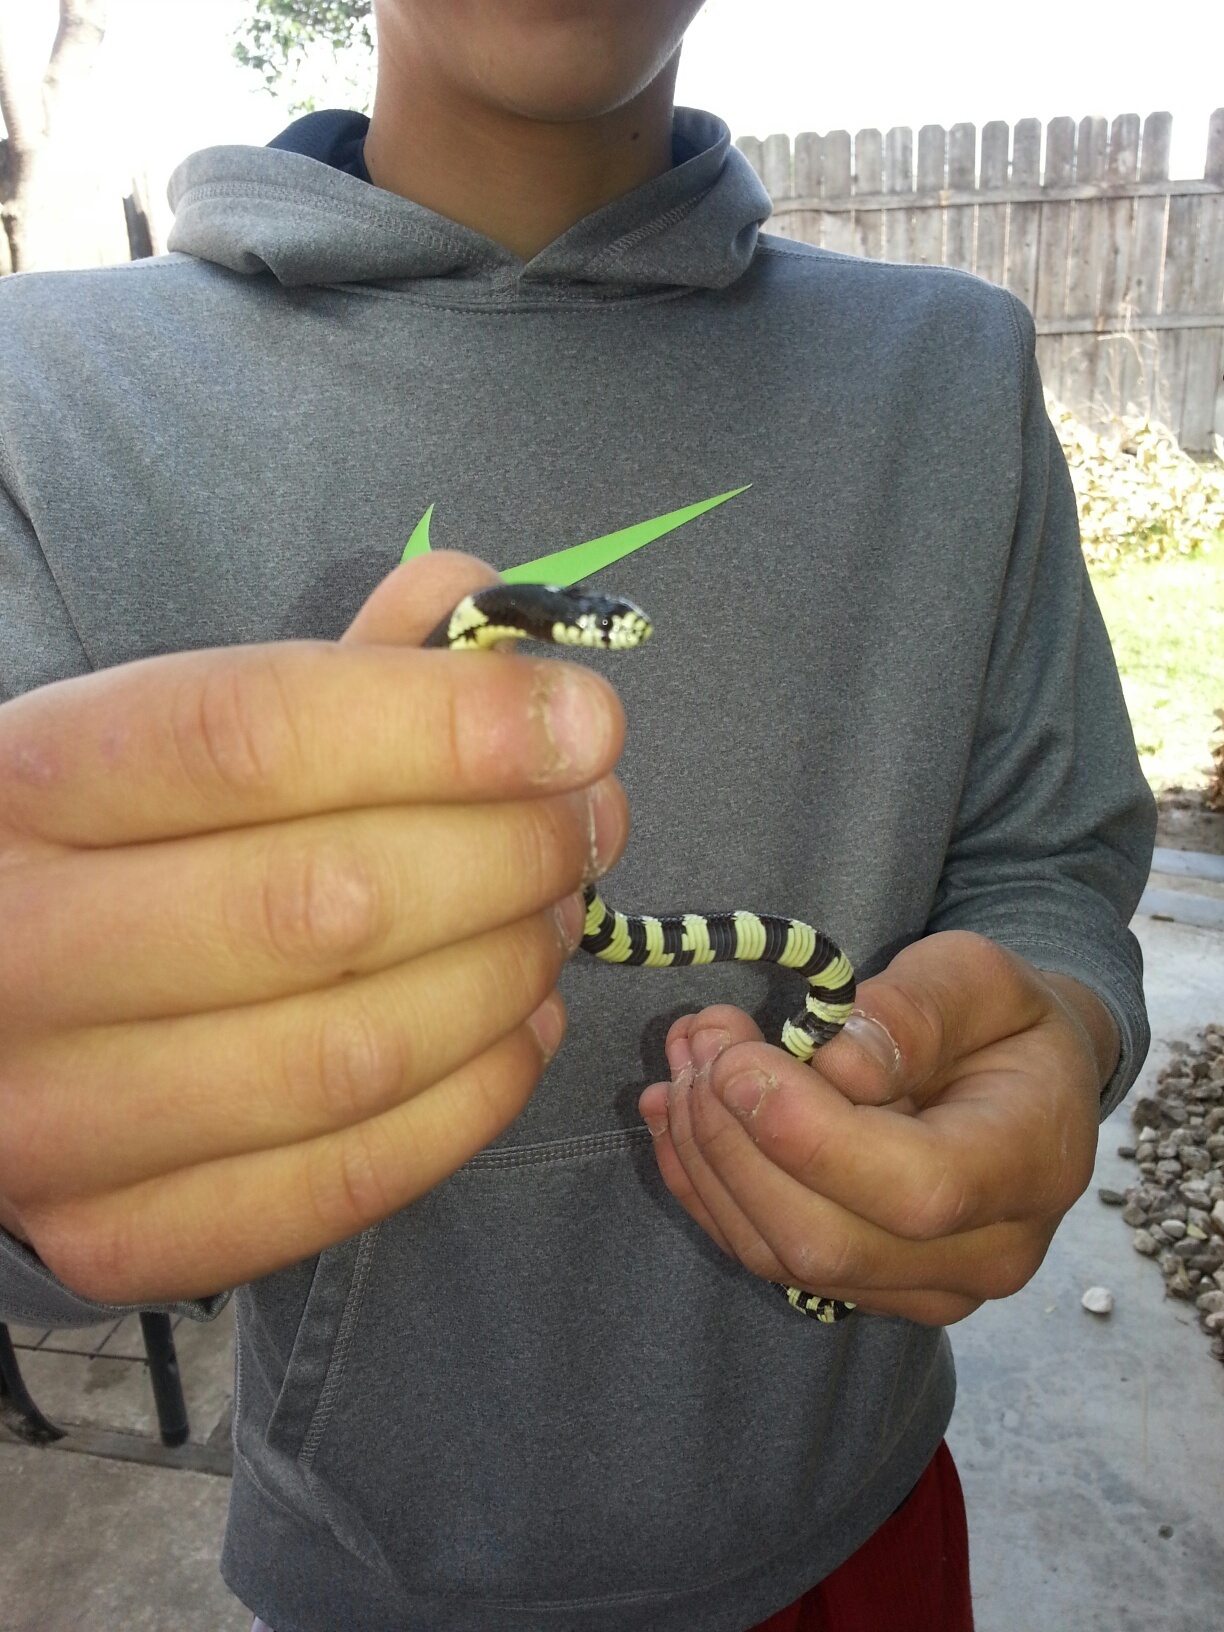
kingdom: Animalia
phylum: Chordata
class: Squamata
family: Colubridae
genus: Lampropeltis
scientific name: Lampropeltis californiae
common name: California kingsnake
